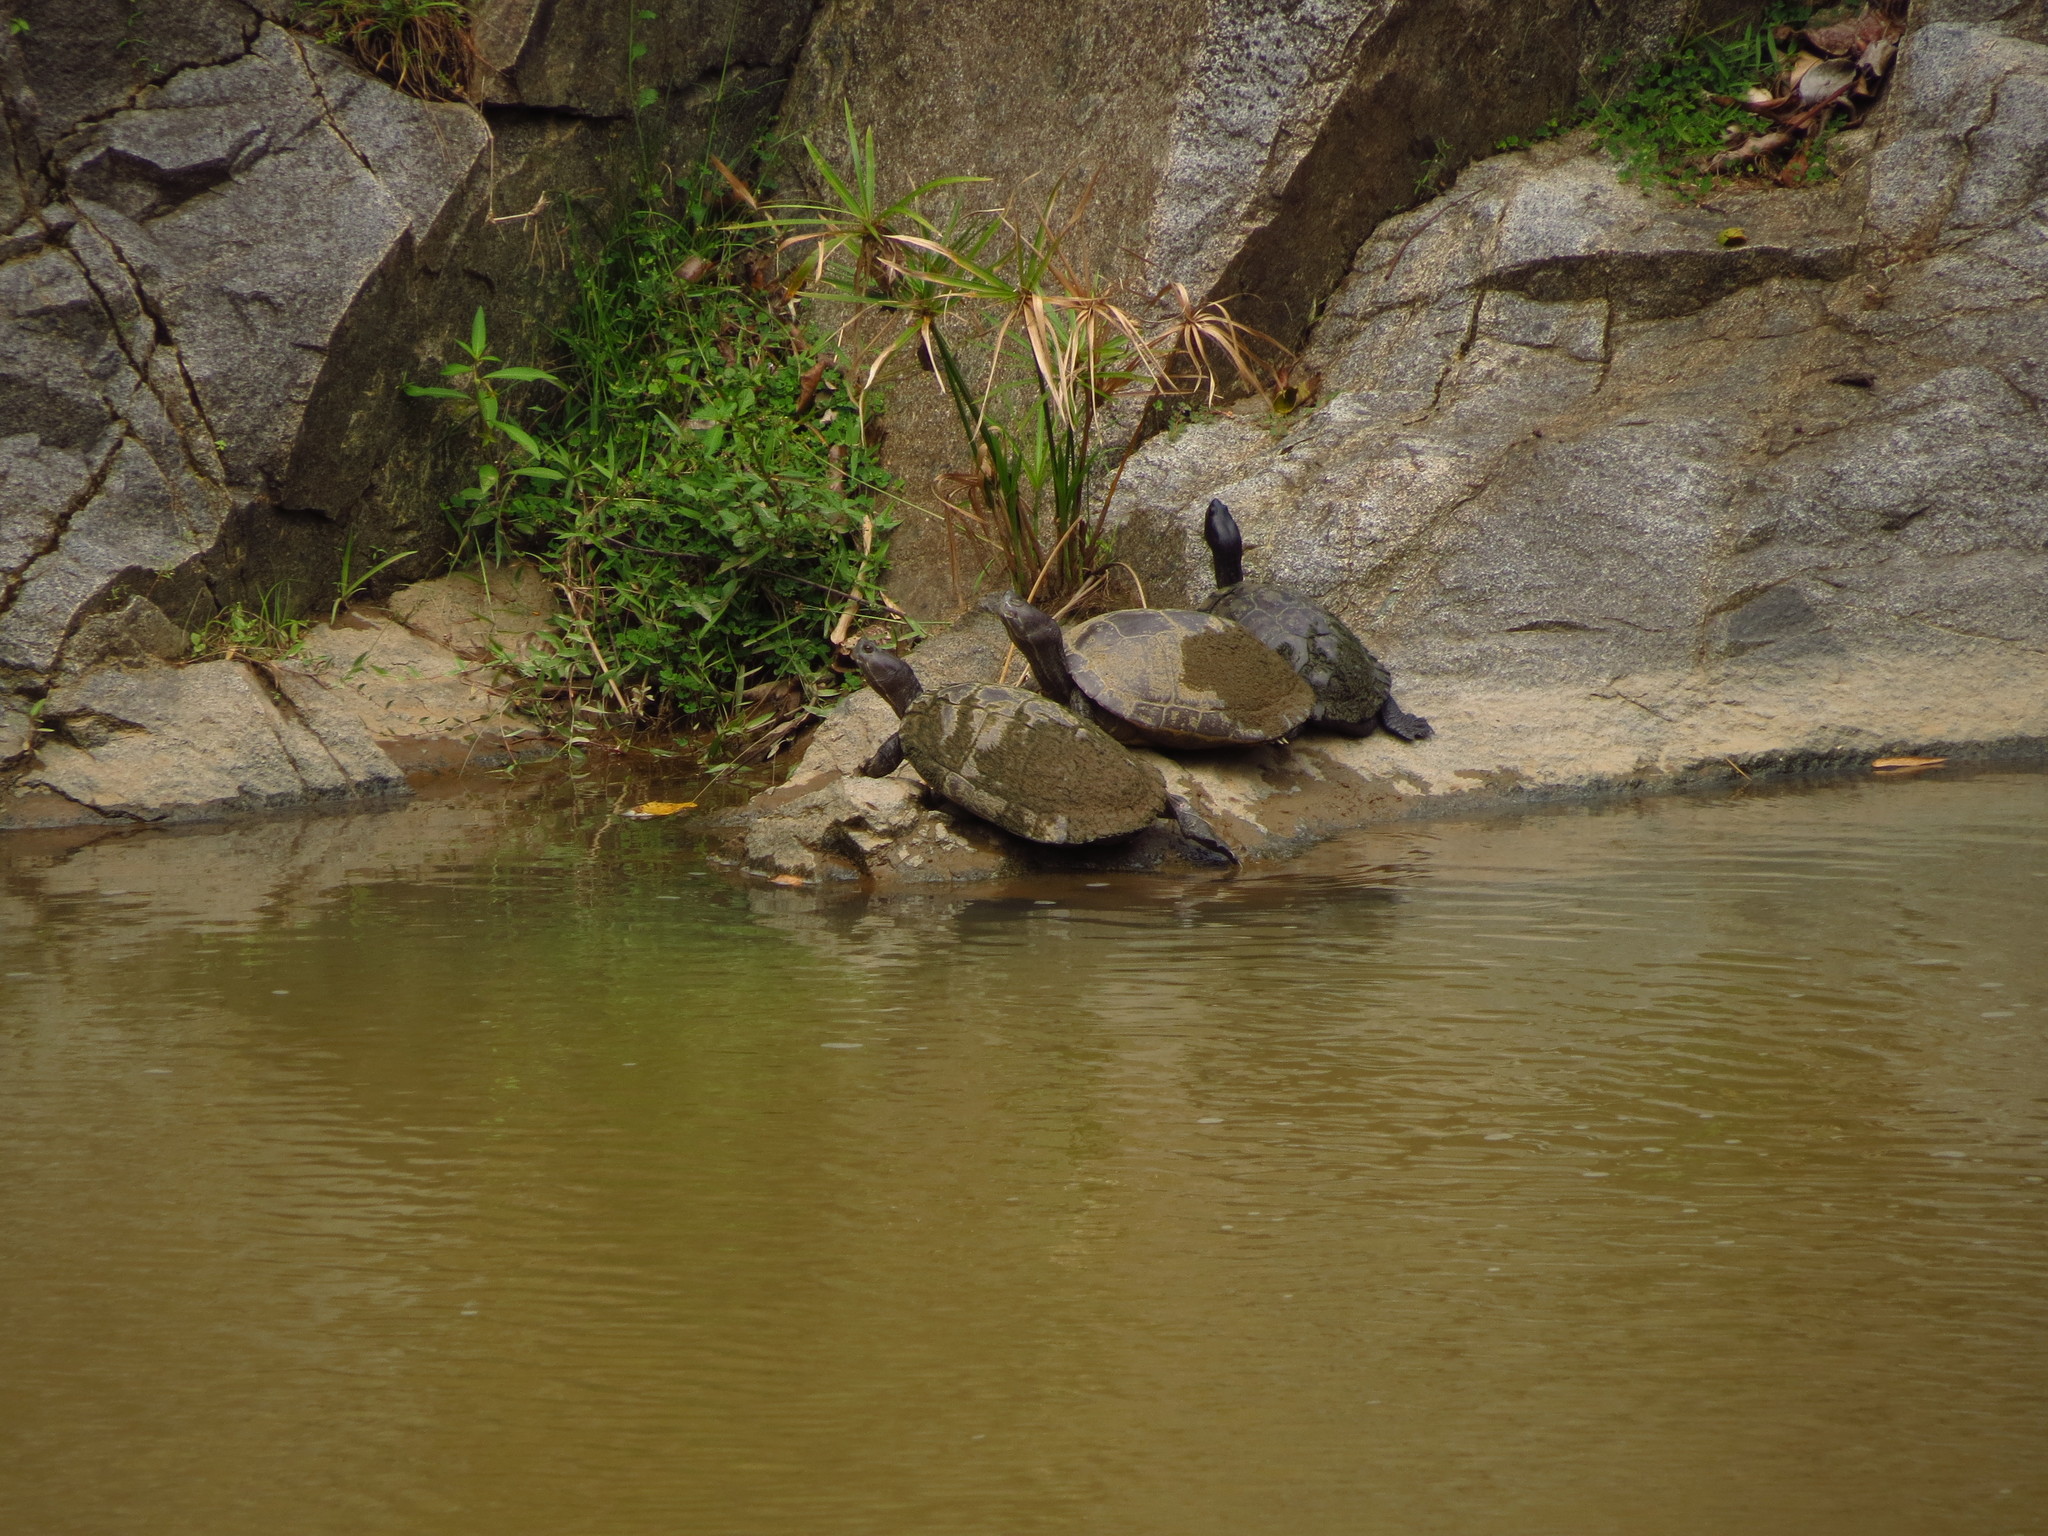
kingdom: Animalia
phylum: Chordata
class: Testudines
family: Emydidae
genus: Trachemys
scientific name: Trachemys stejnegeri
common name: Puerto rican slider
